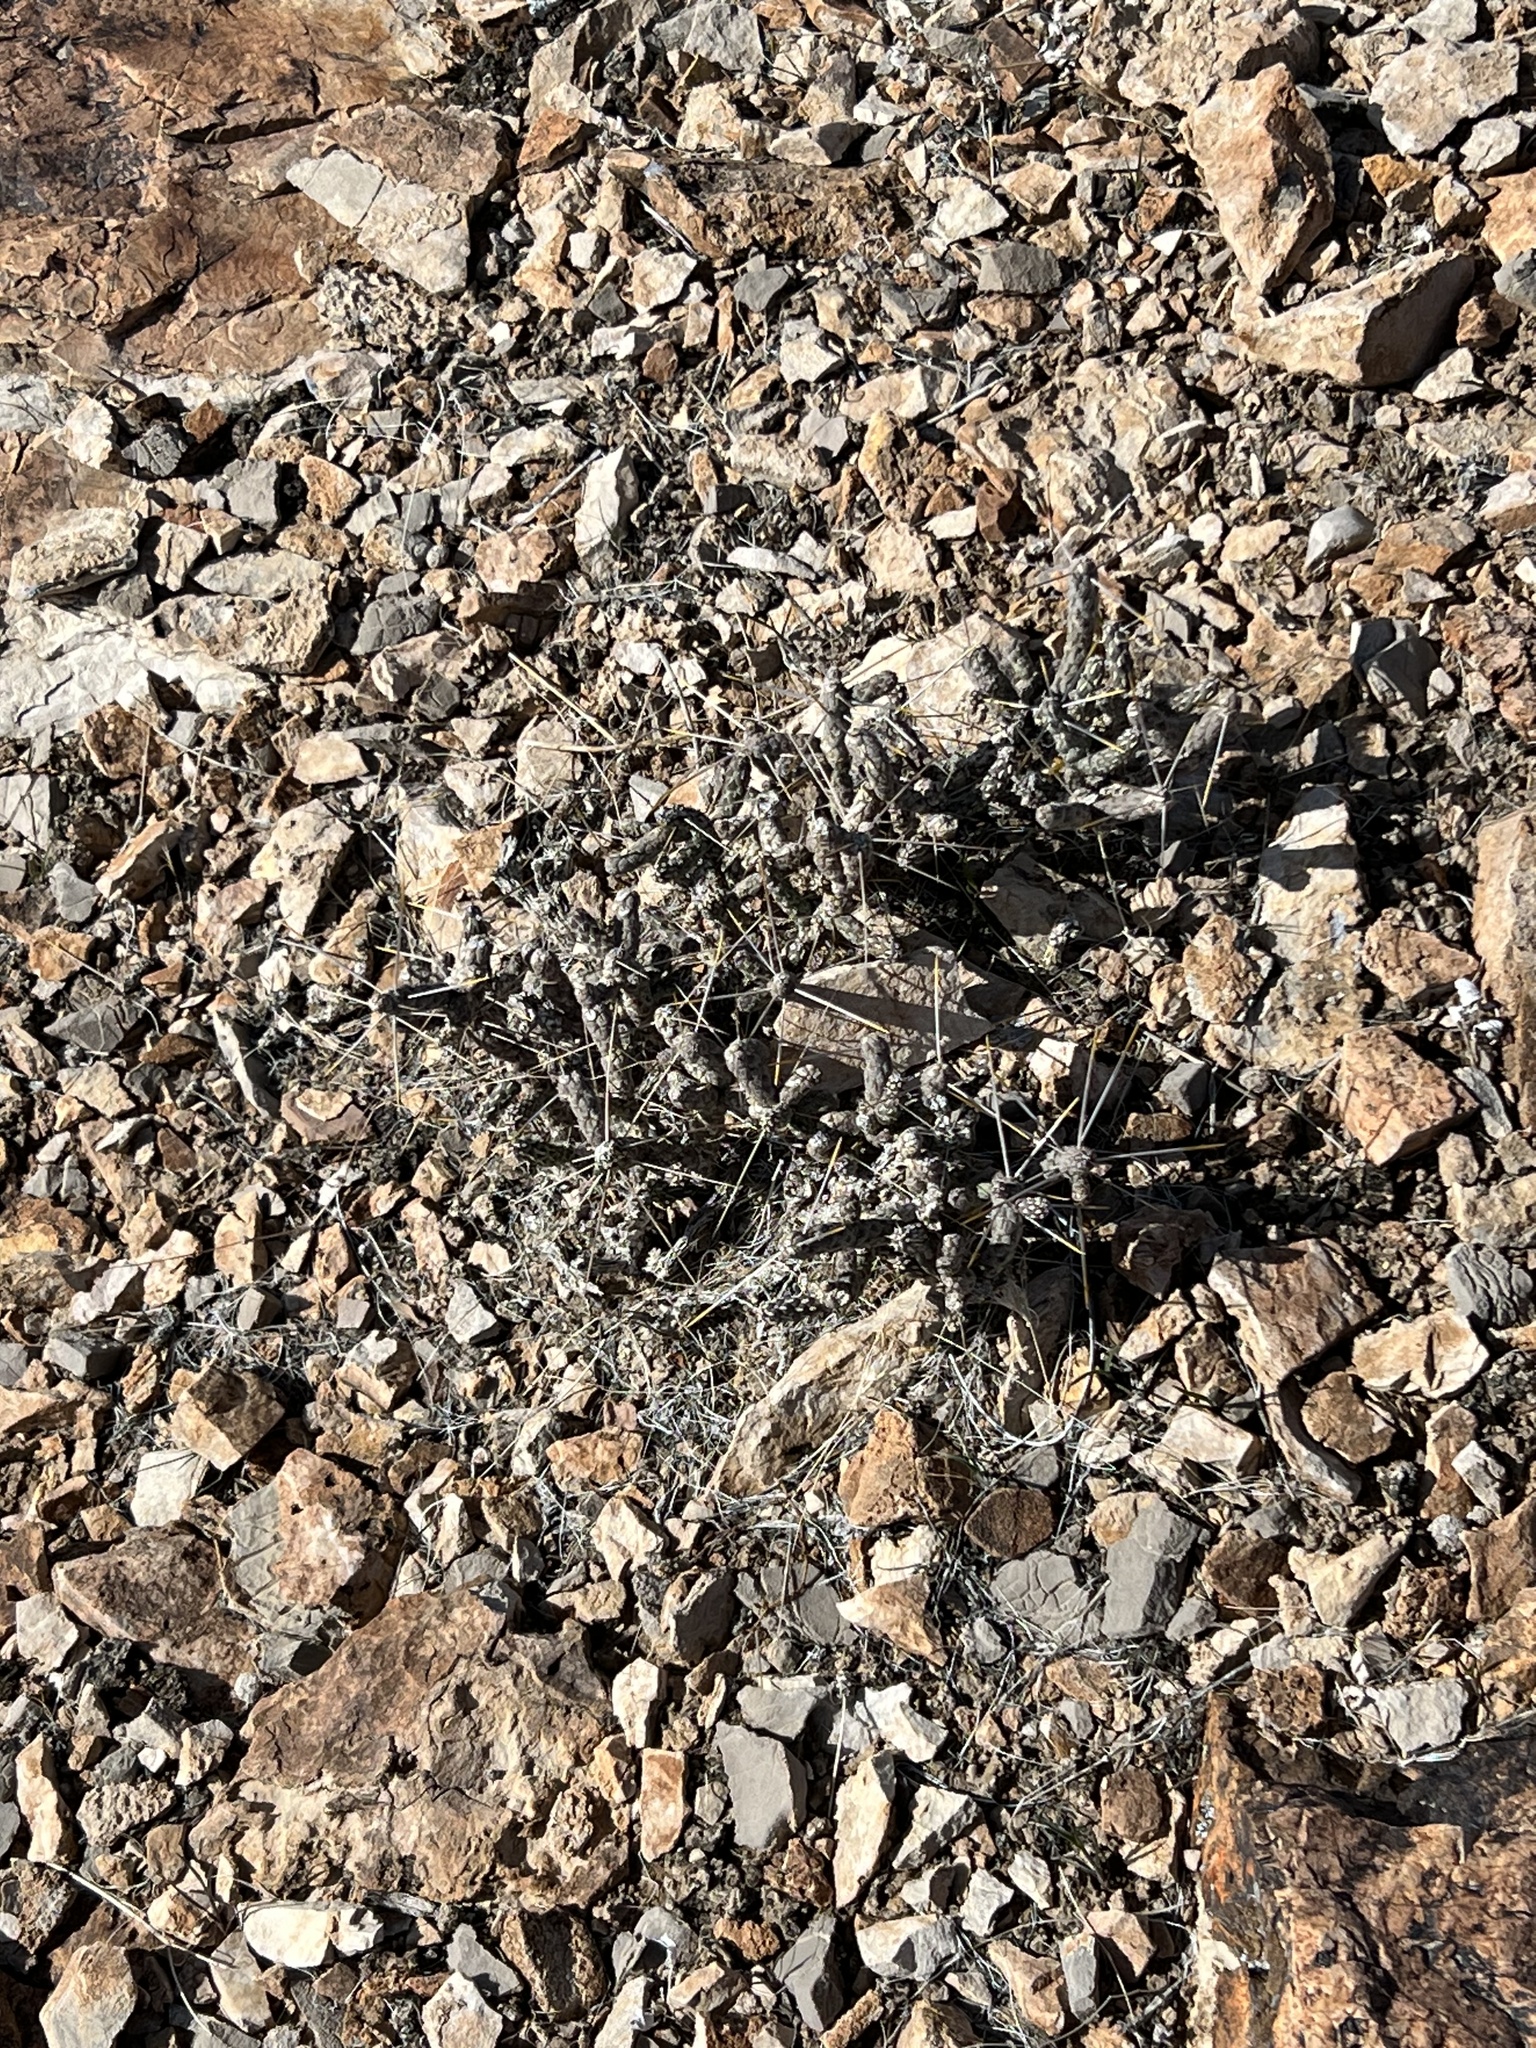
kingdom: Plantae
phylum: Tracheophyta
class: Magnoliopsida
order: Caryophyllales
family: Cactaceae
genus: Cylindropuntia
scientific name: Cylindropuntia ramosissima
